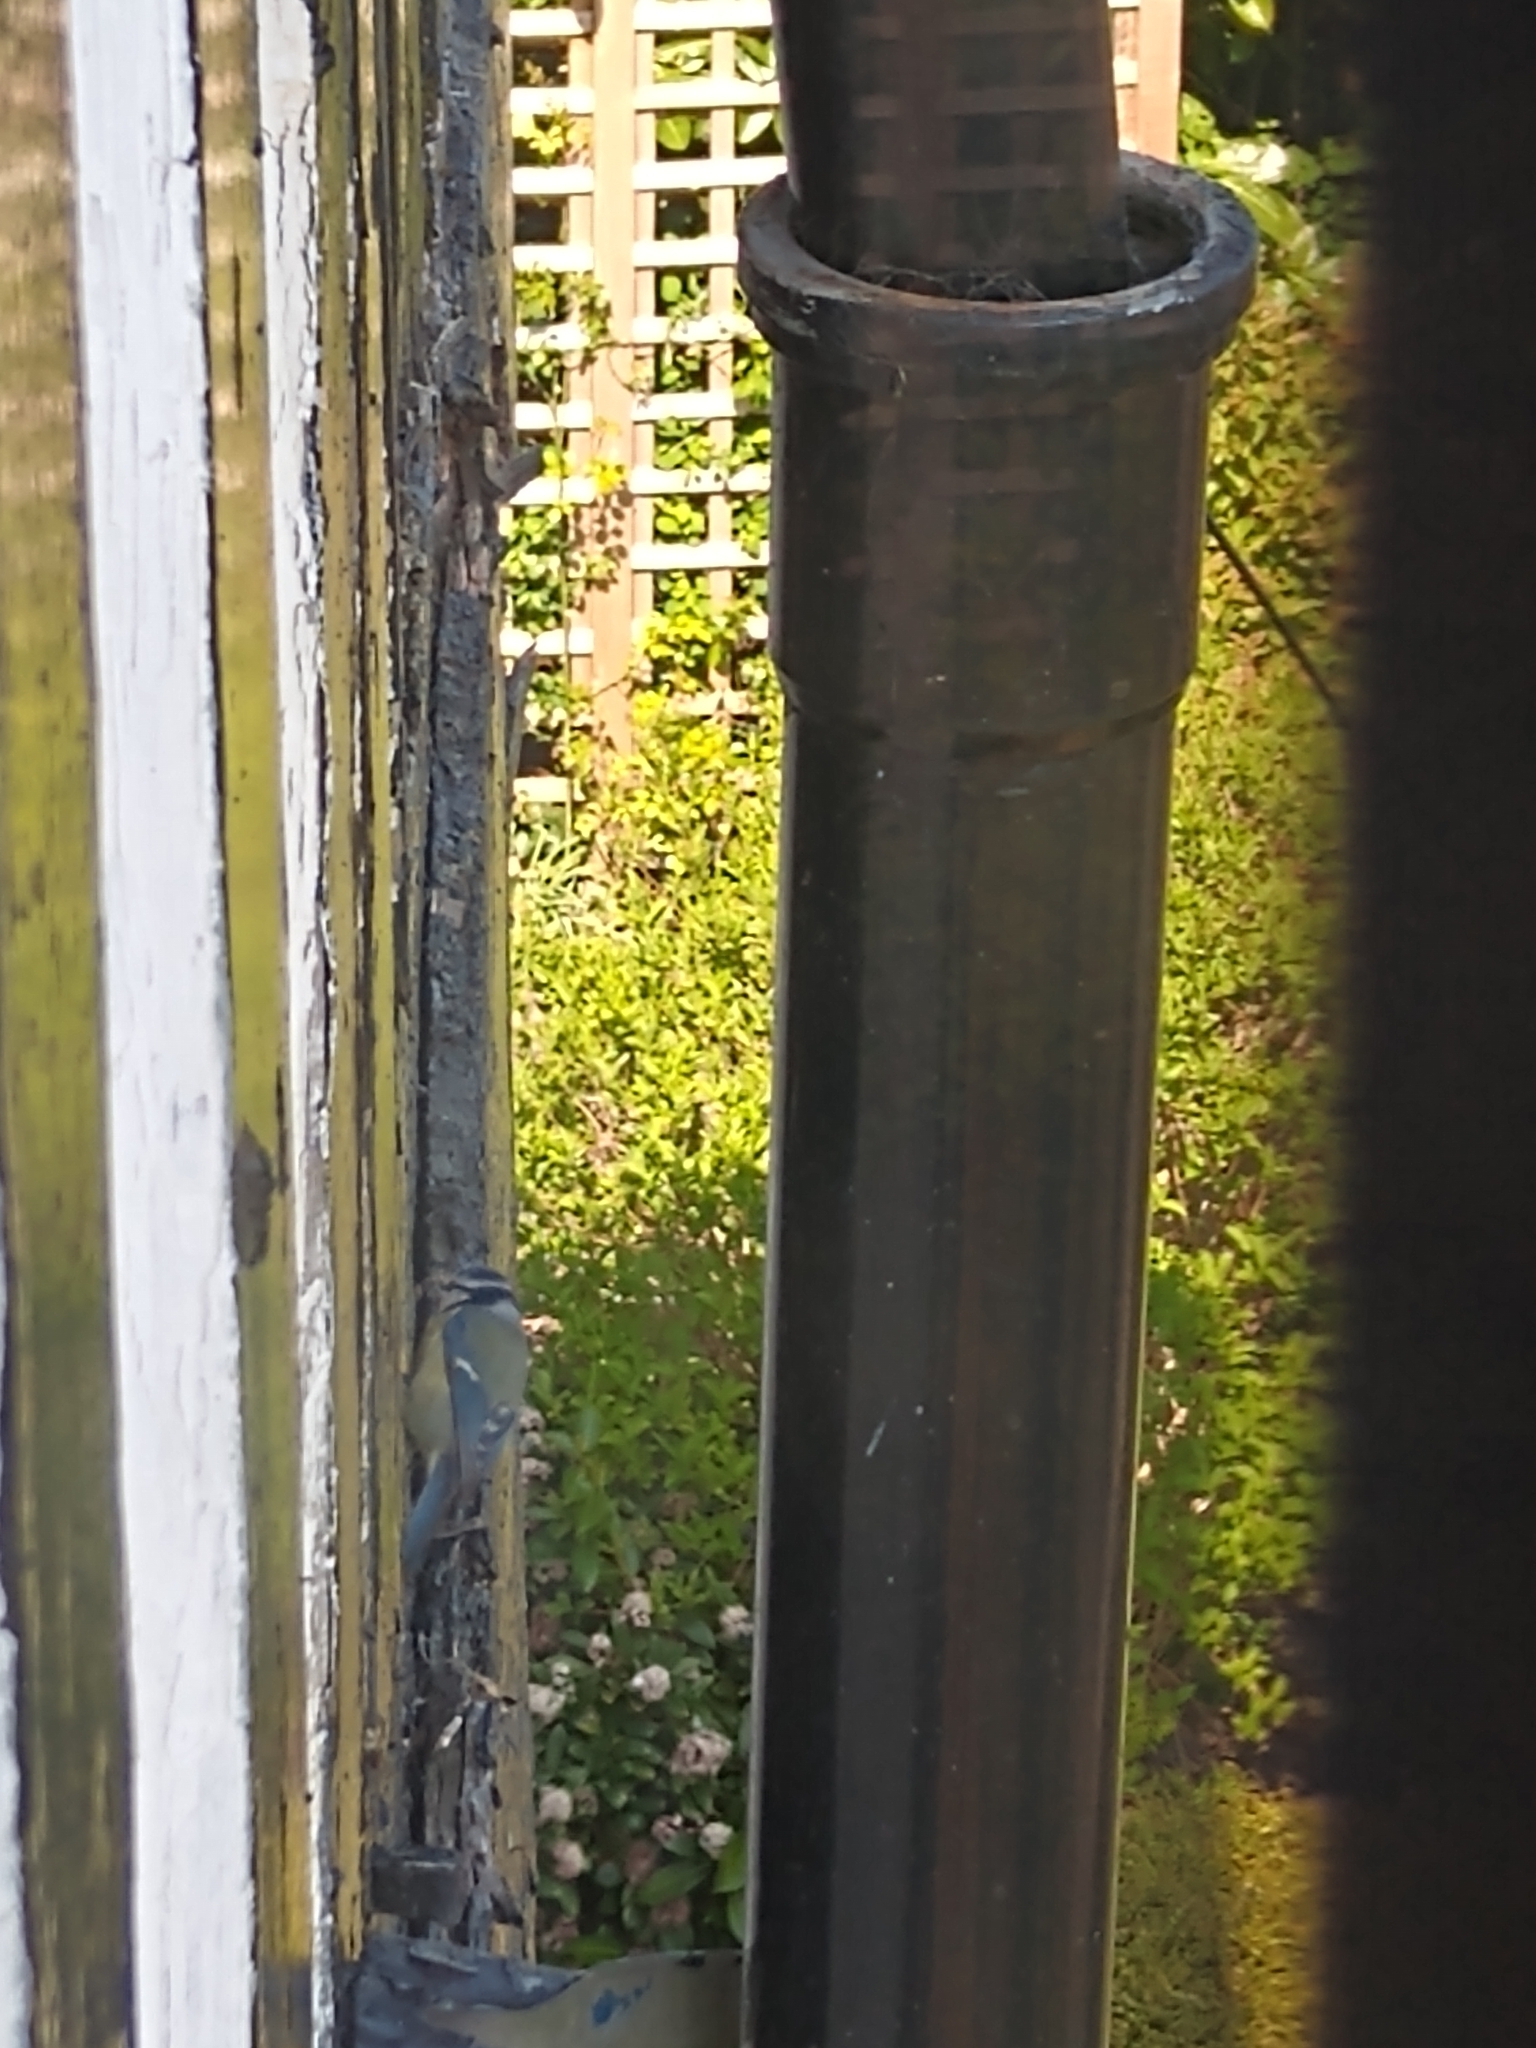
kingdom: Animalia
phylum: Chordata
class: Aves
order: Passeriformes
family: Paridae
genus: Cyanistes
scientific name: Cyanistes caeruleus
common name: Eurasian blue tit
